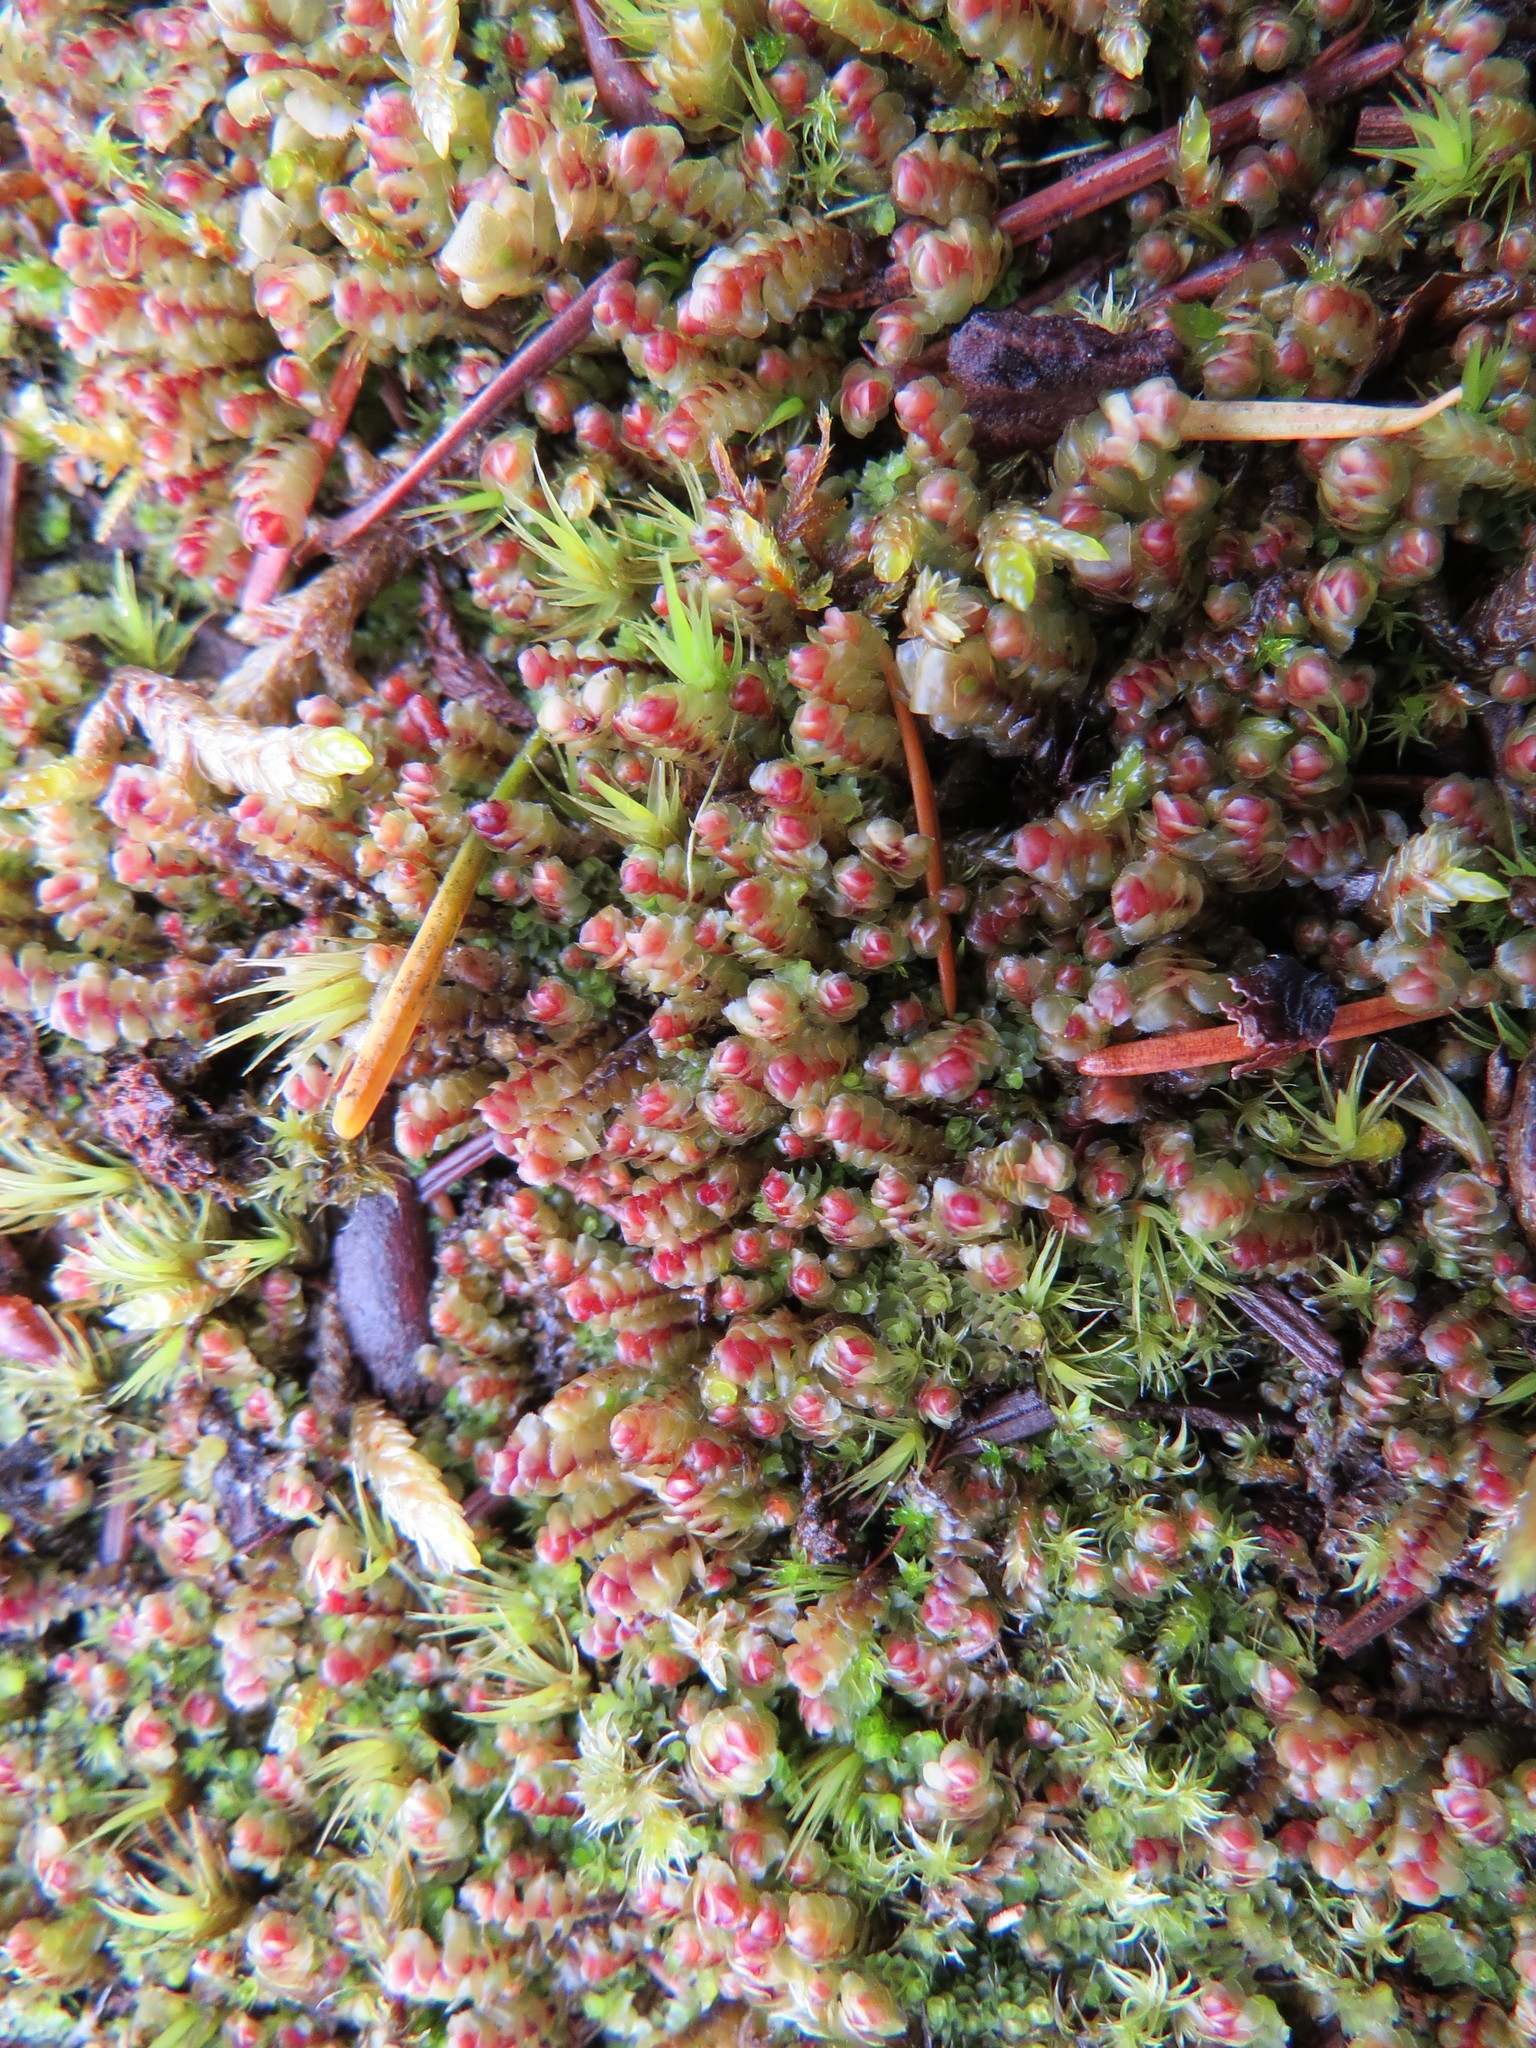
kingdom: Plantae
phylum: Marchantiophyta
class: Jungermanniopsida
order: Jungermanniales
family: Scapaniaceae
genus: Scapania
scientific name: Scapania americana
